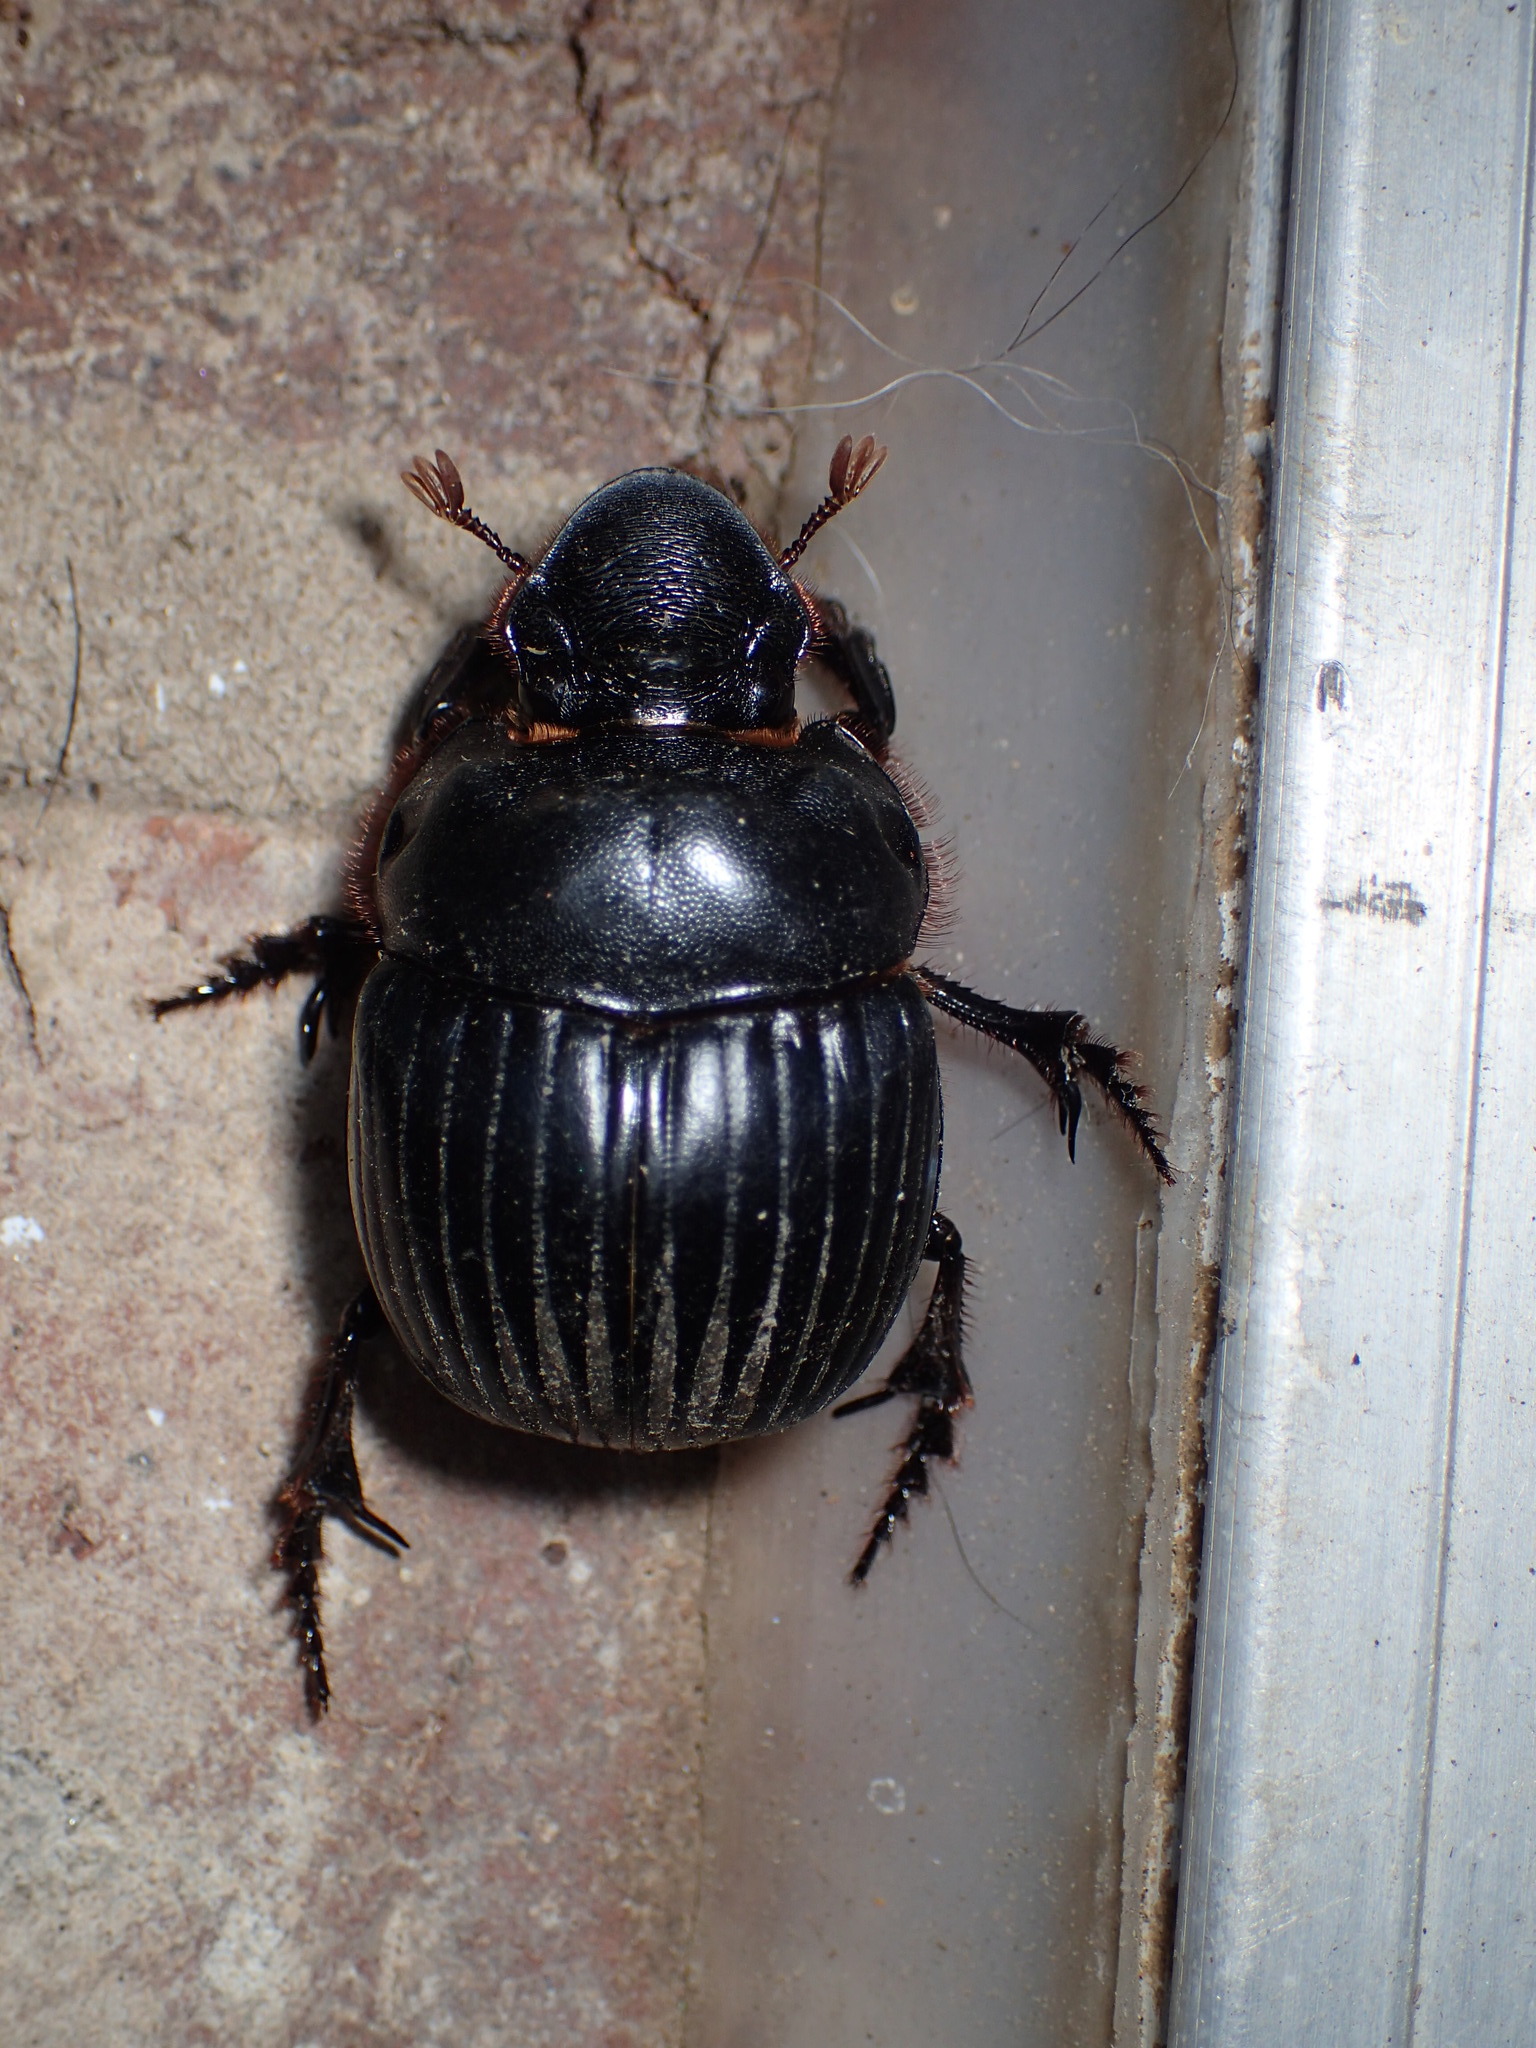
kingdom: Animalia
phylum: Arthropoda
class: Insecta
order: Coleoptera
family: Scarabaeidae
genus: Dichotomius
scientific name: Dichotomius carolinus
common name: Carolina copris
